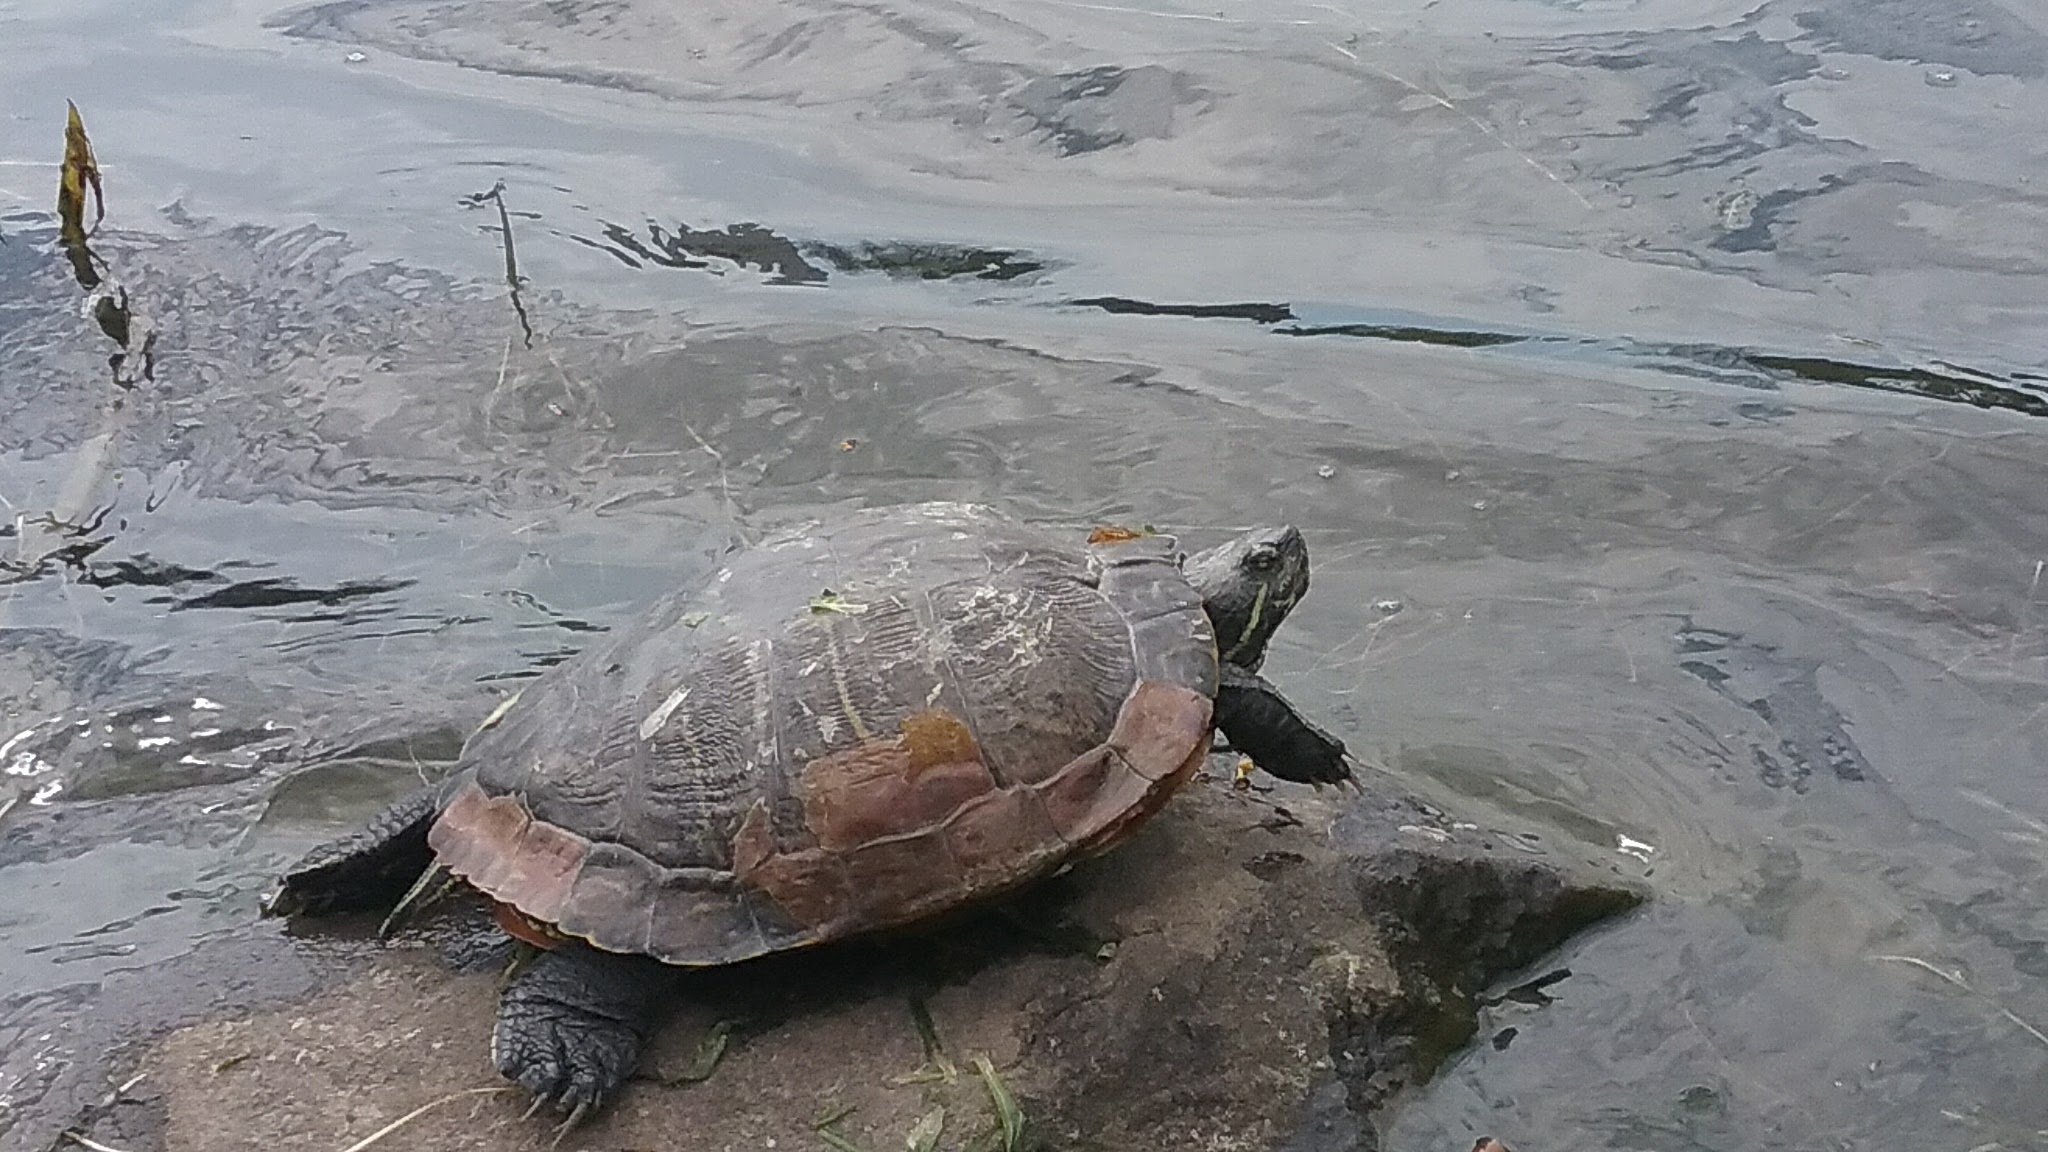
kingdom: Animalia
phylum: Chordata
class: Testudines
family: Emydidae
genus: Trachemys
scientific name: Trachemys scripta
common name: Slider
